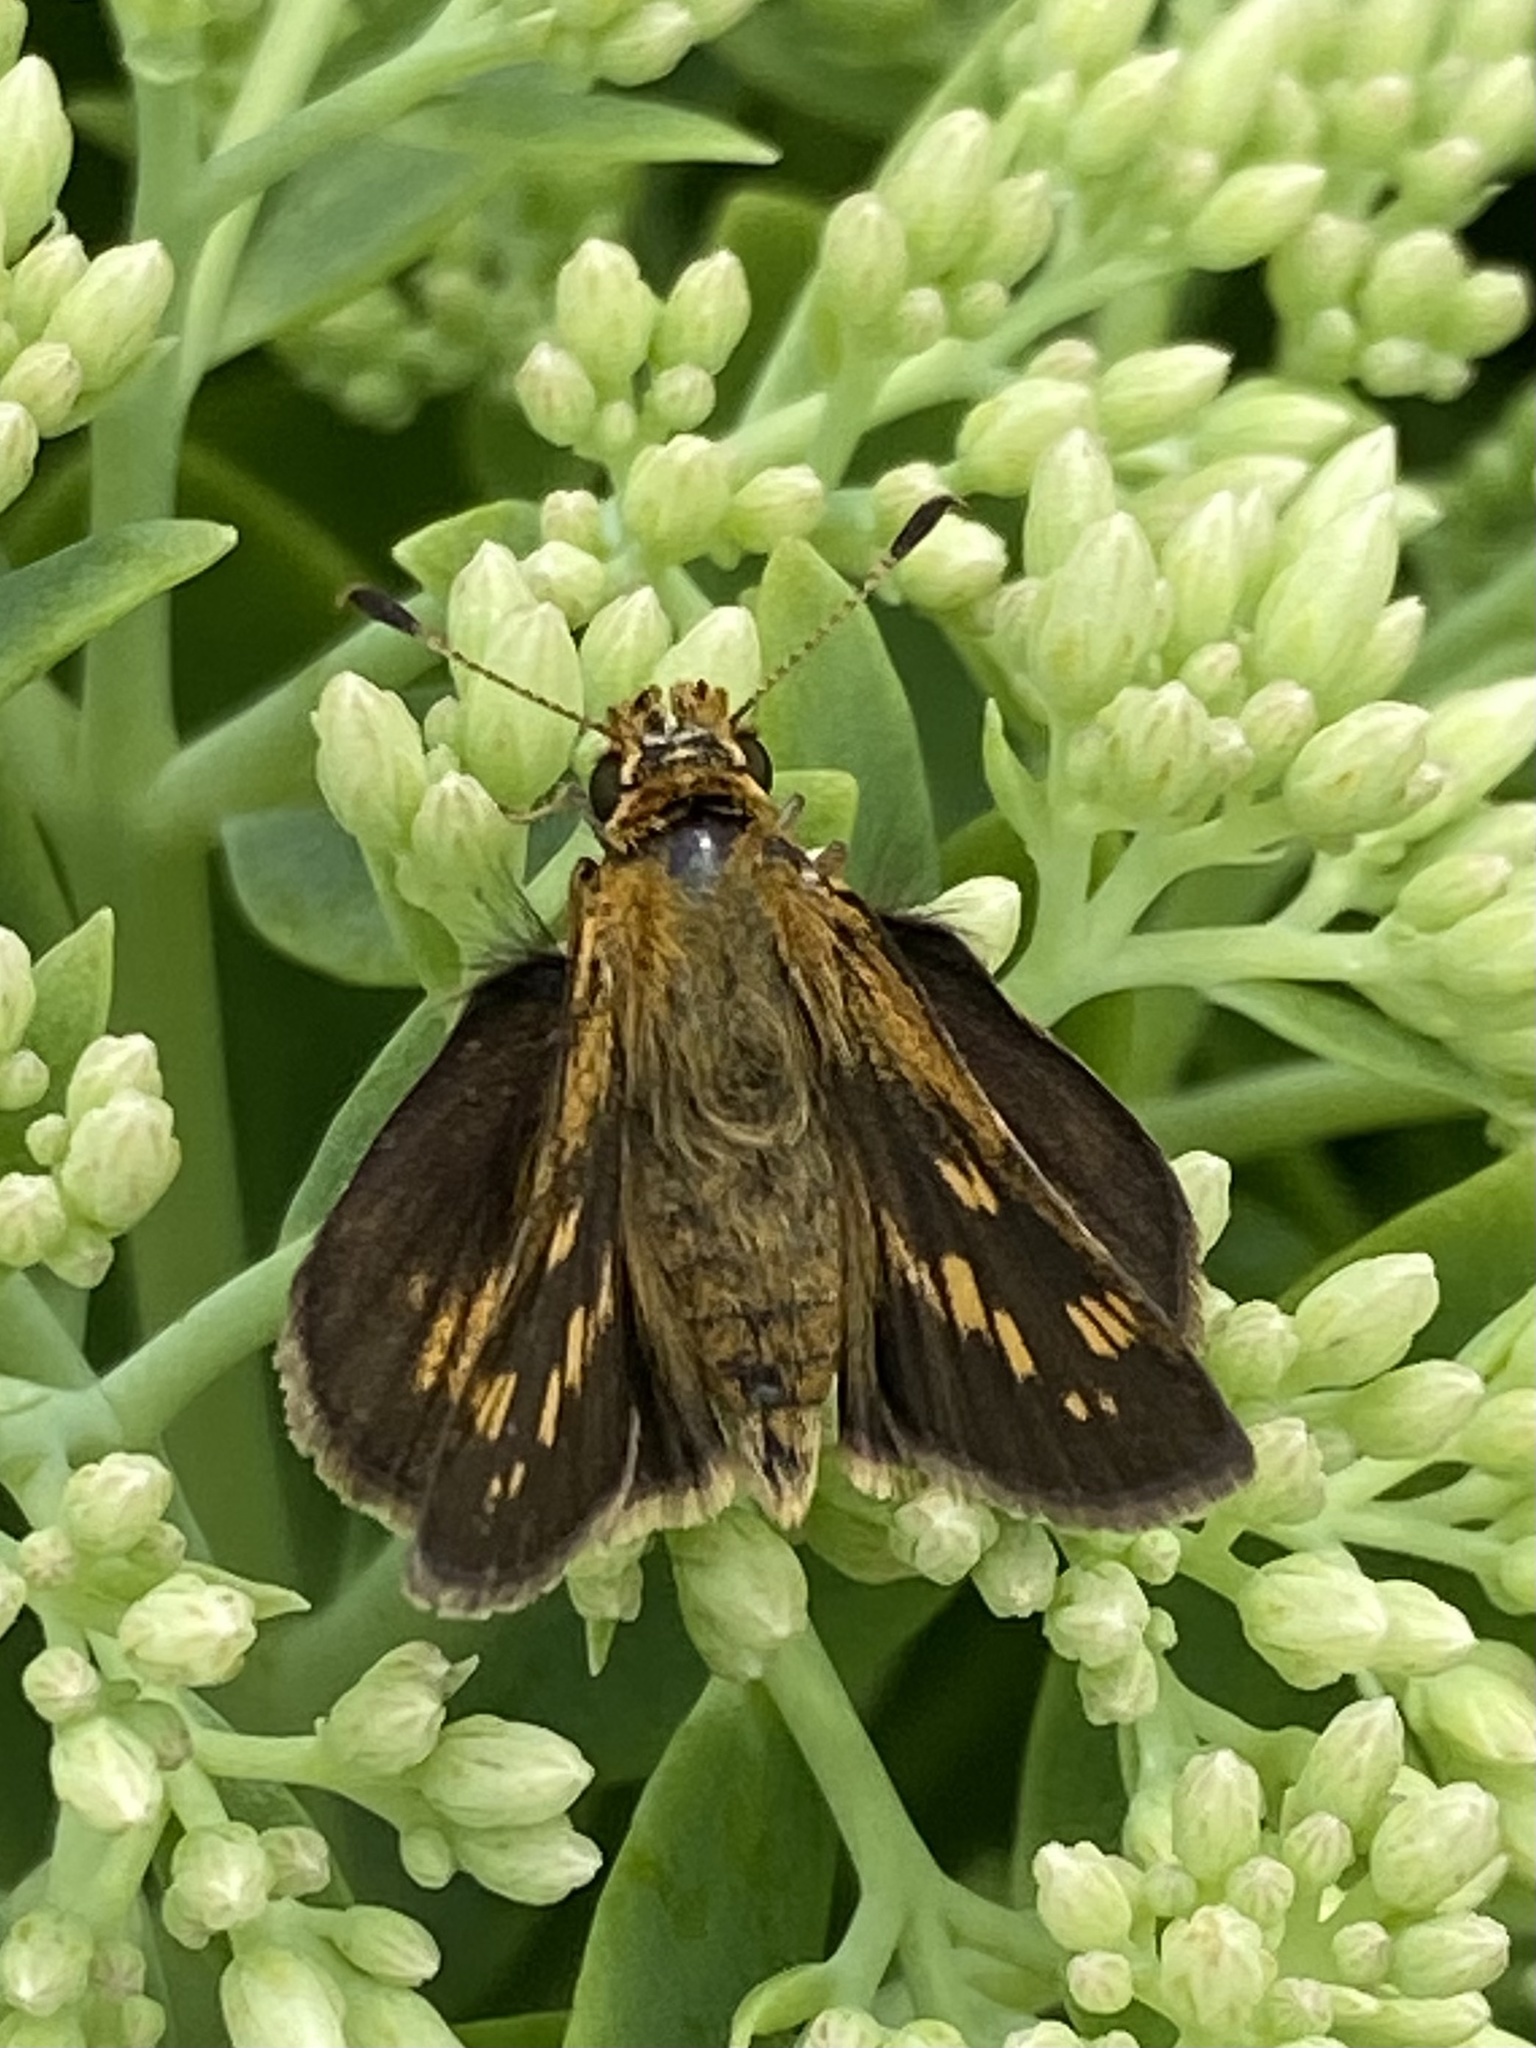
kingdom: Animalia
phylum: Arthropoda
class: Insecta
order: Lepidoptera
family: Hesperiidae
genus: Polites
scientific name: Polites coras
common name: Peck's skipper
